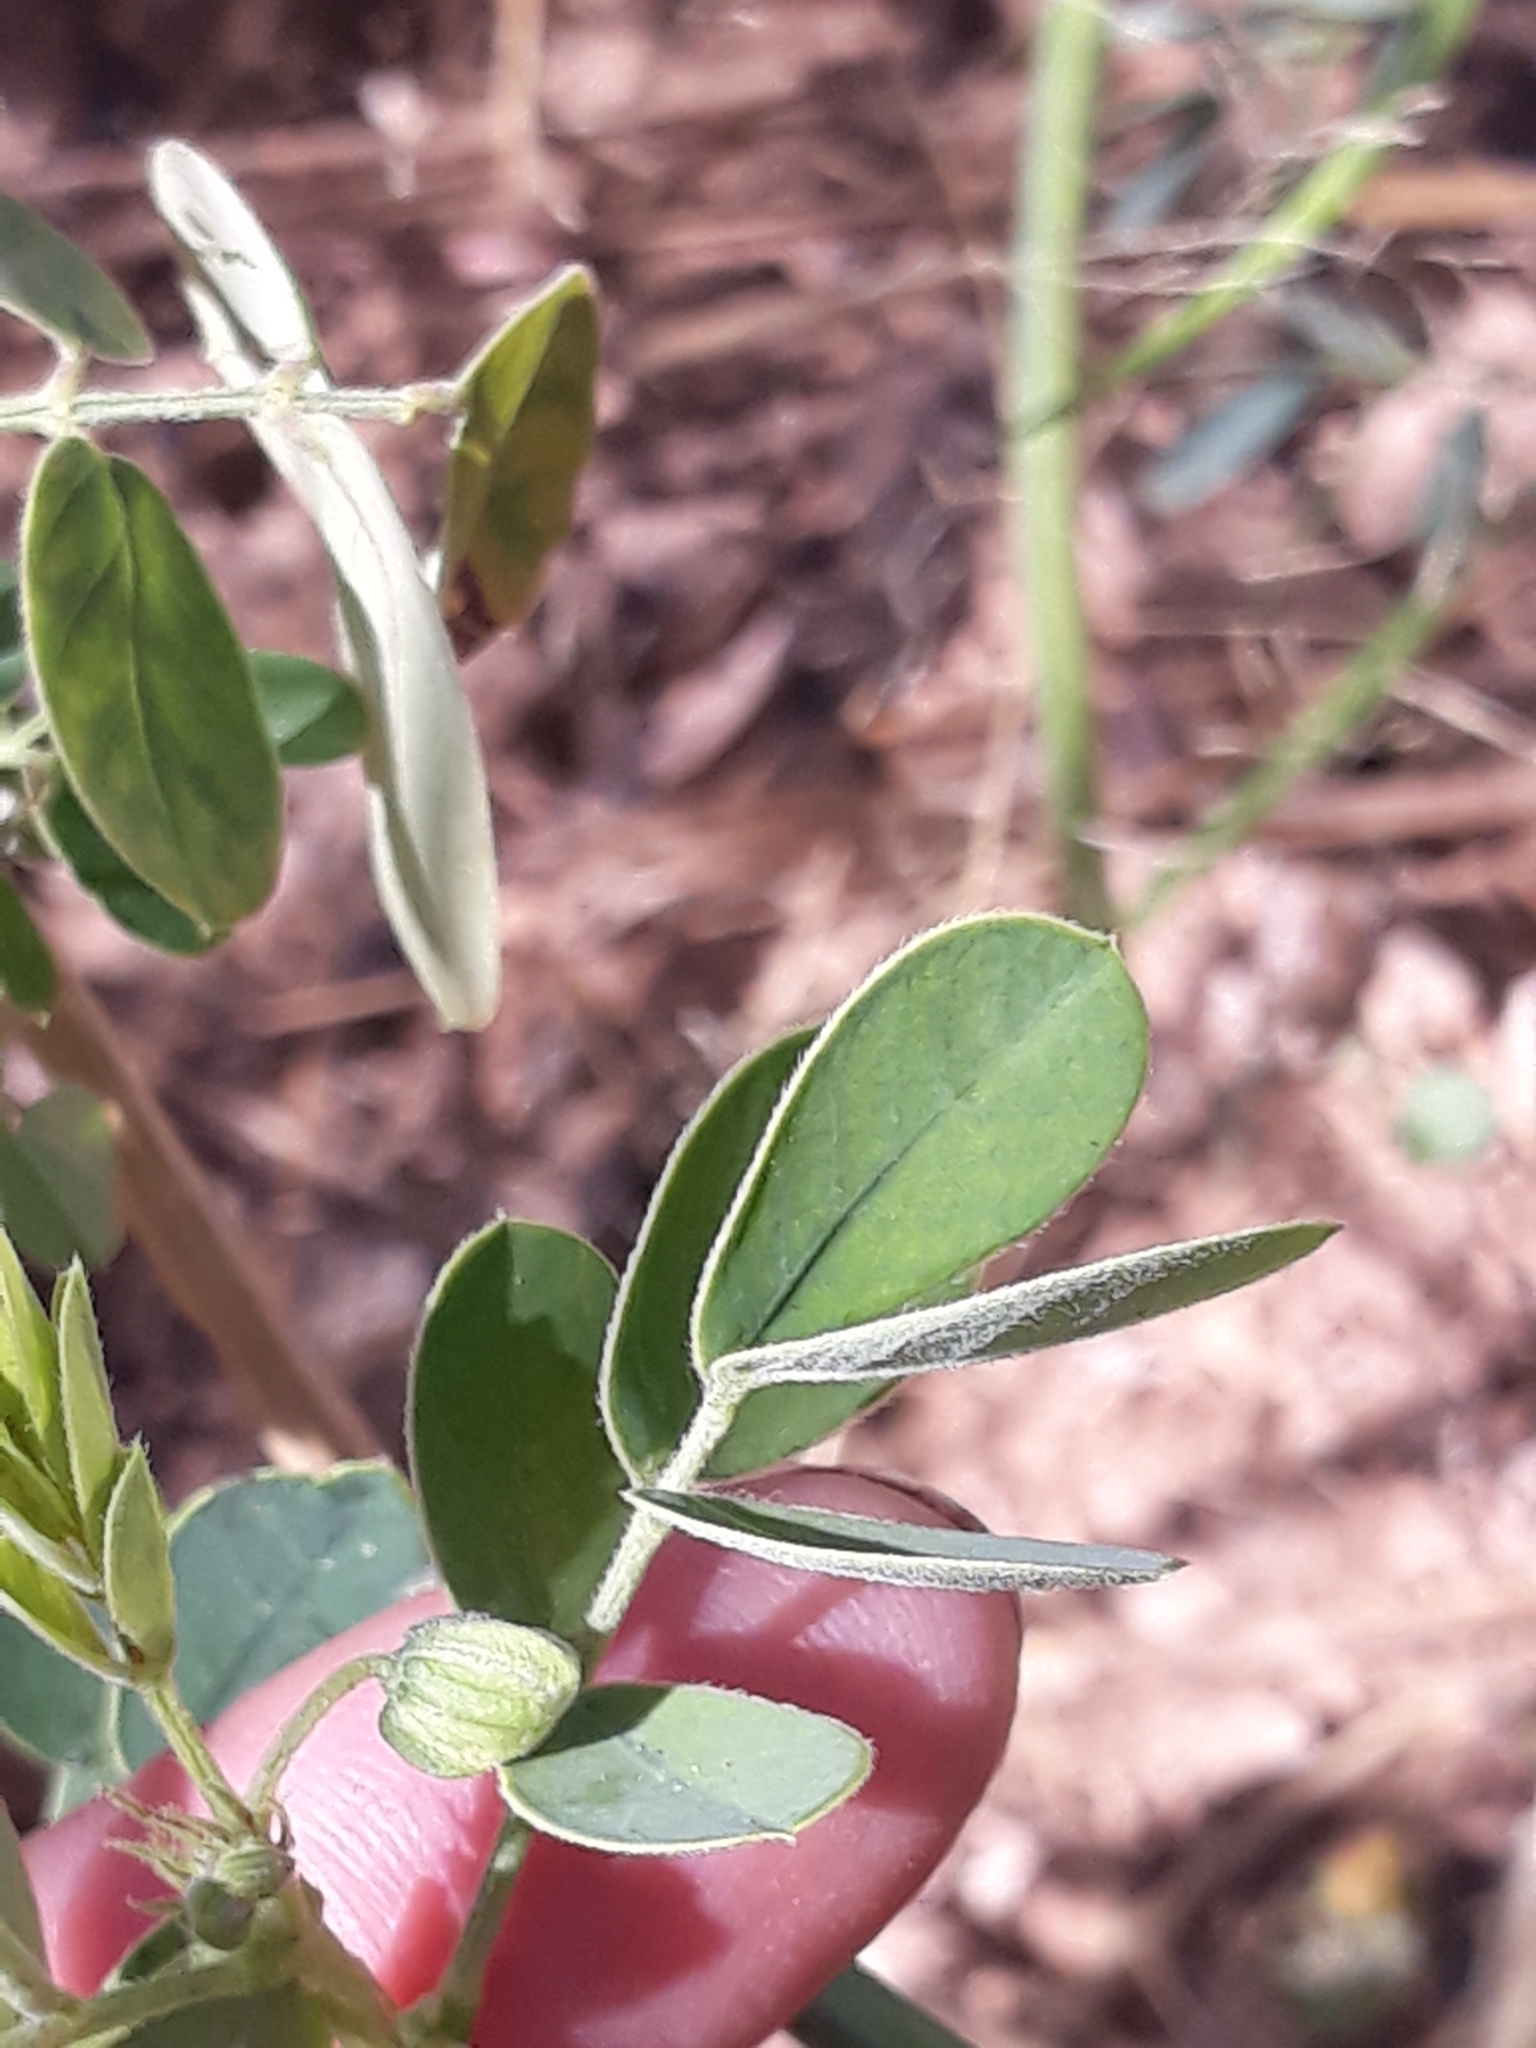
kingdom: Plantae
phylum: Tracheophyta
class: Magnoliopsida
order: Fabales
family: Fabaceae
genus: Senna
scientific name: Senna obtusifolia
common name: Java-bean
